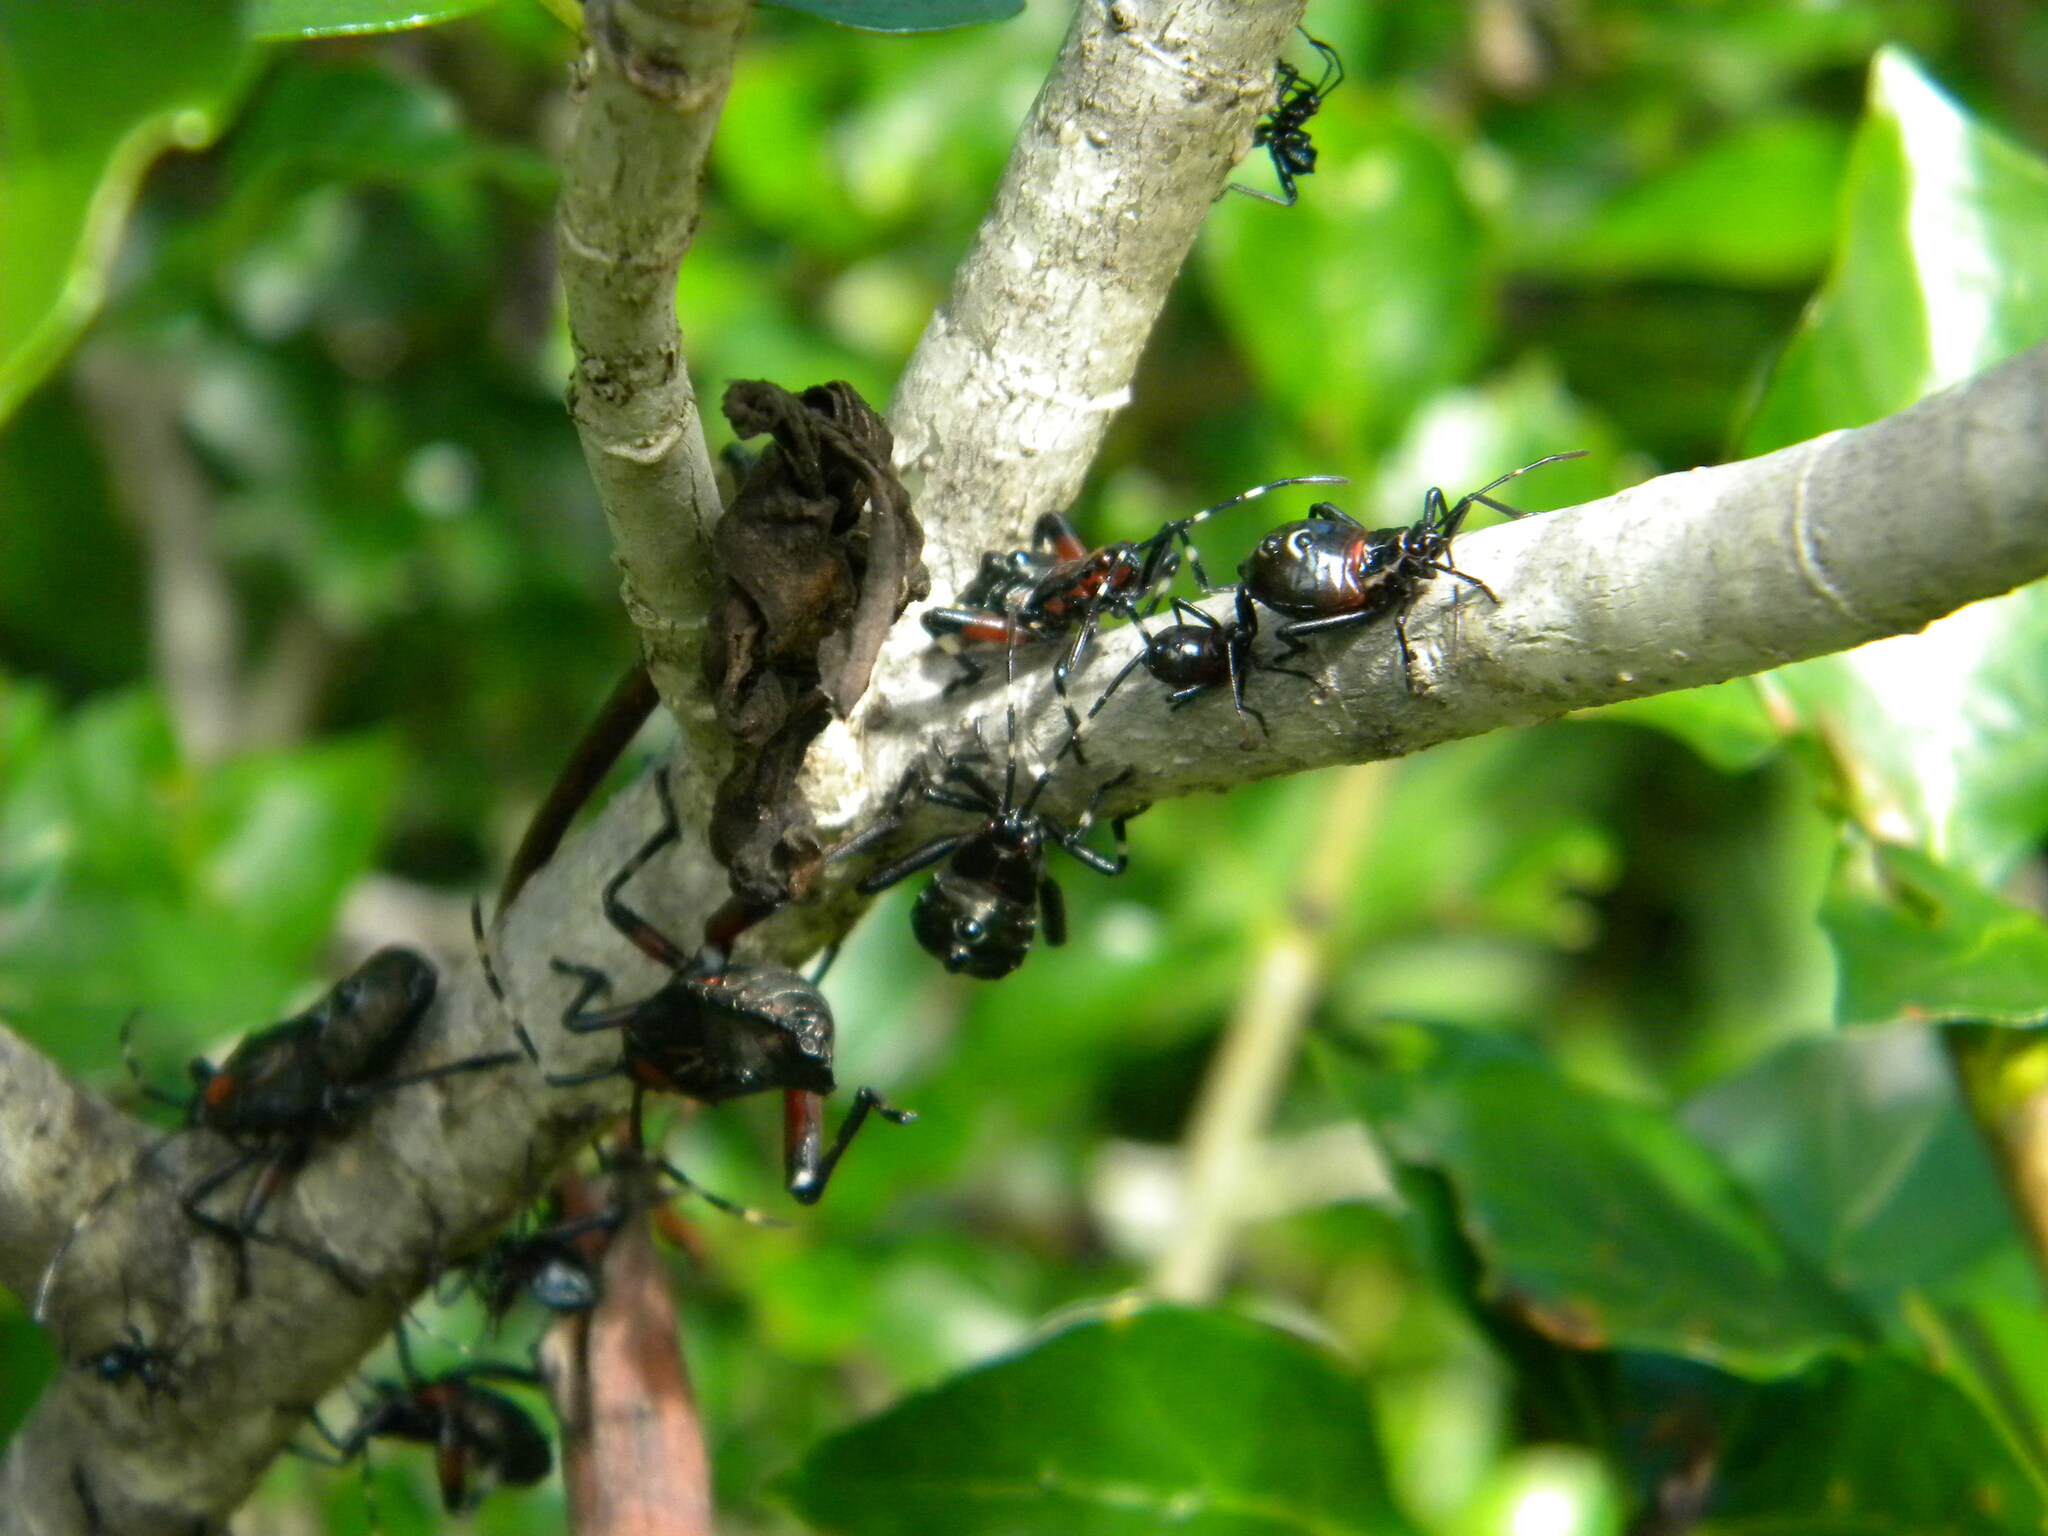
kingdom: Animalia
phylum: Arthropoda
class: Insecta
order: Hemiptera
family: Coreidae
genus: Carlisis
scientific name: Carlisis wahlbergi
